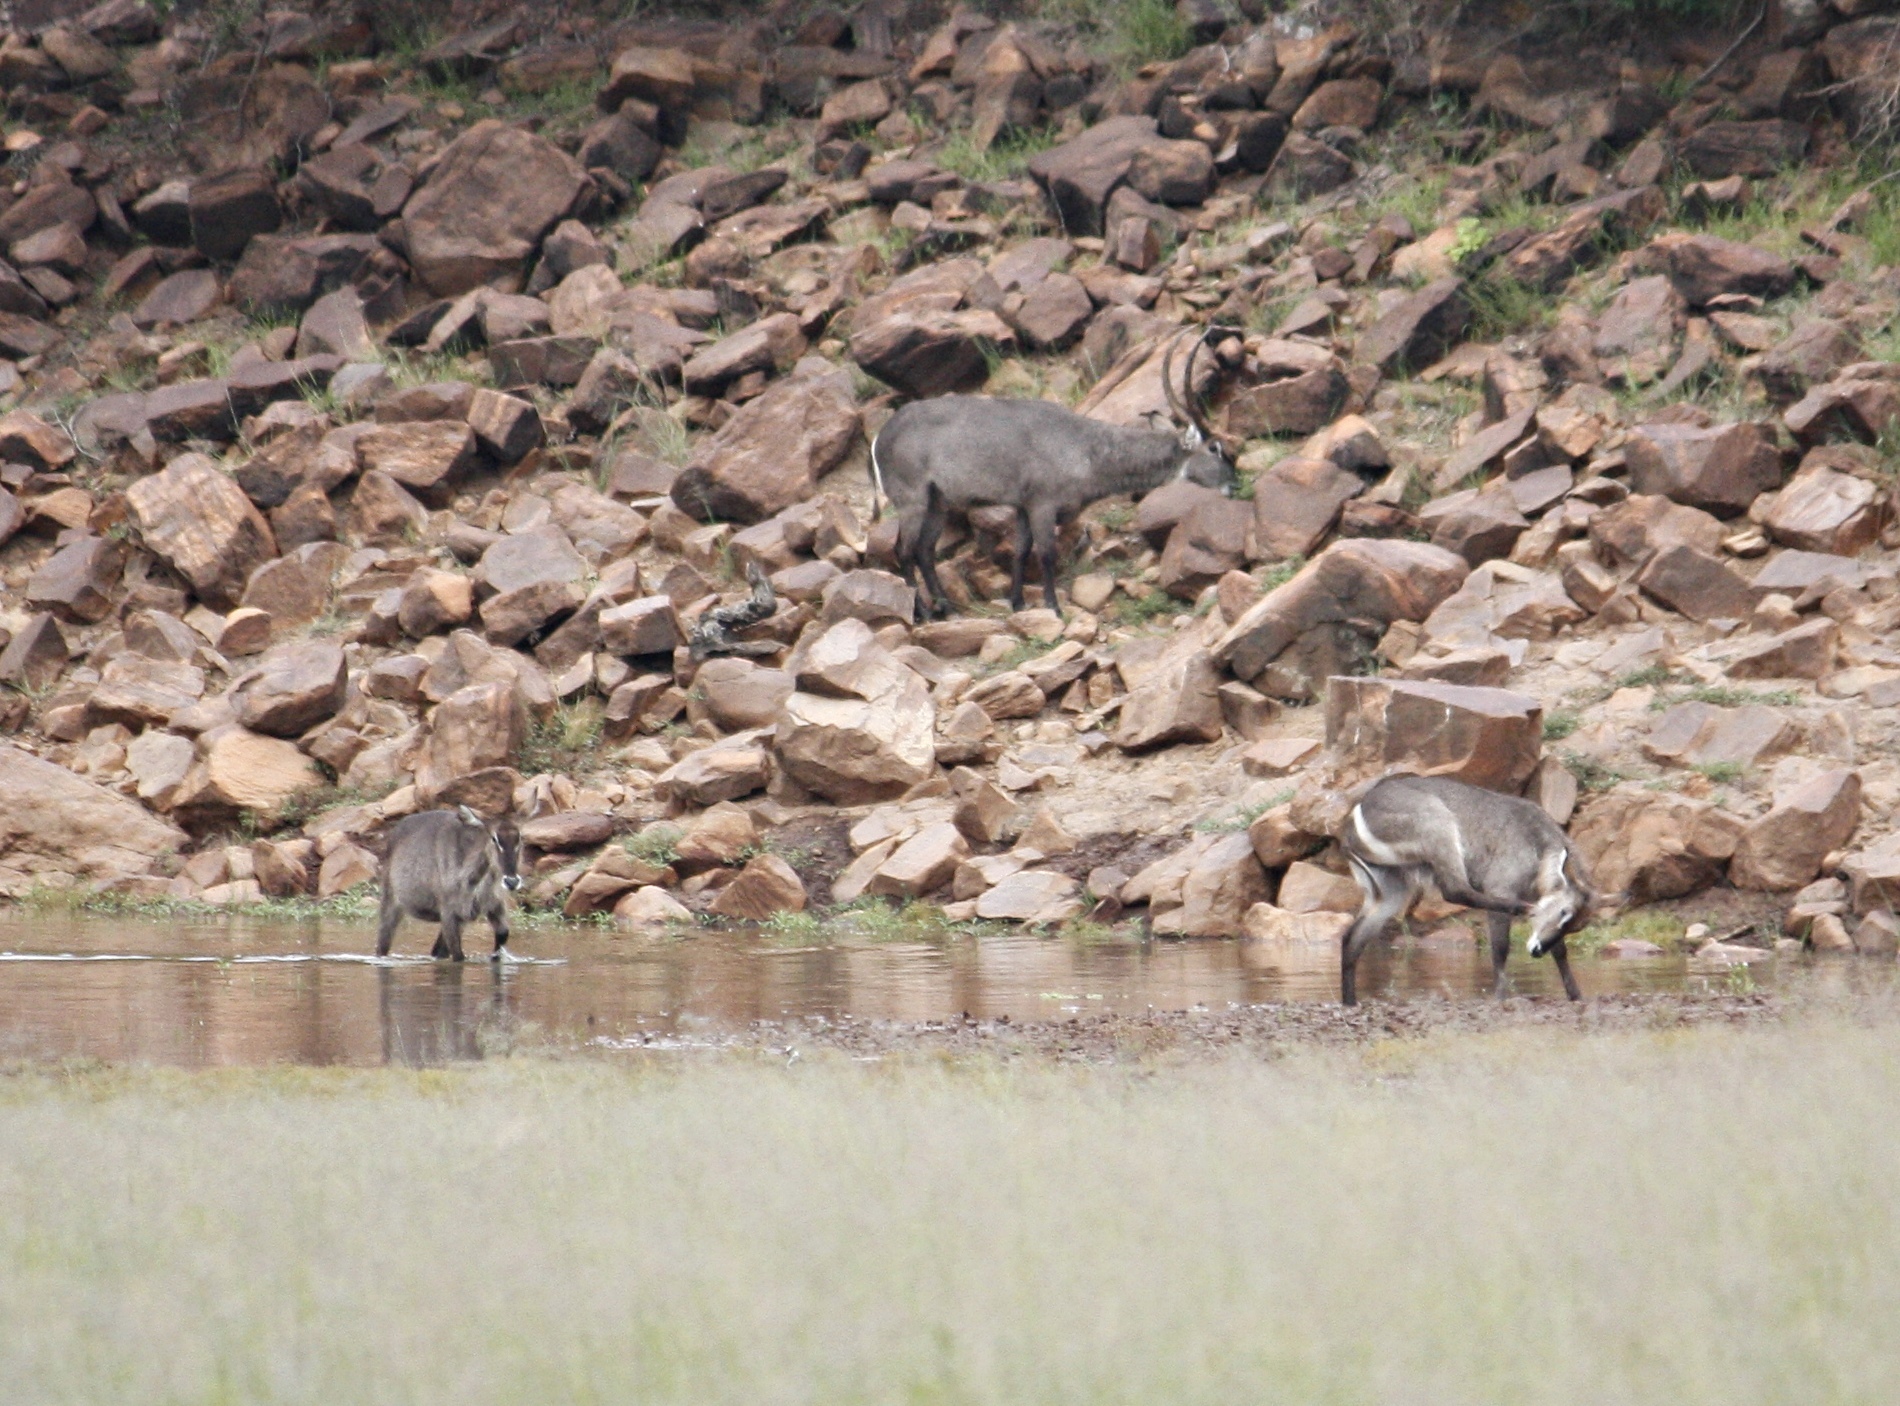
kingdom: Animalia
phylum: Chordata
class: Mammalia
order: Artiodactyla
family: Bovidae
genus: Kobus
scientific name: Kobus ellipsiprymnus
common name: Waterbuck
